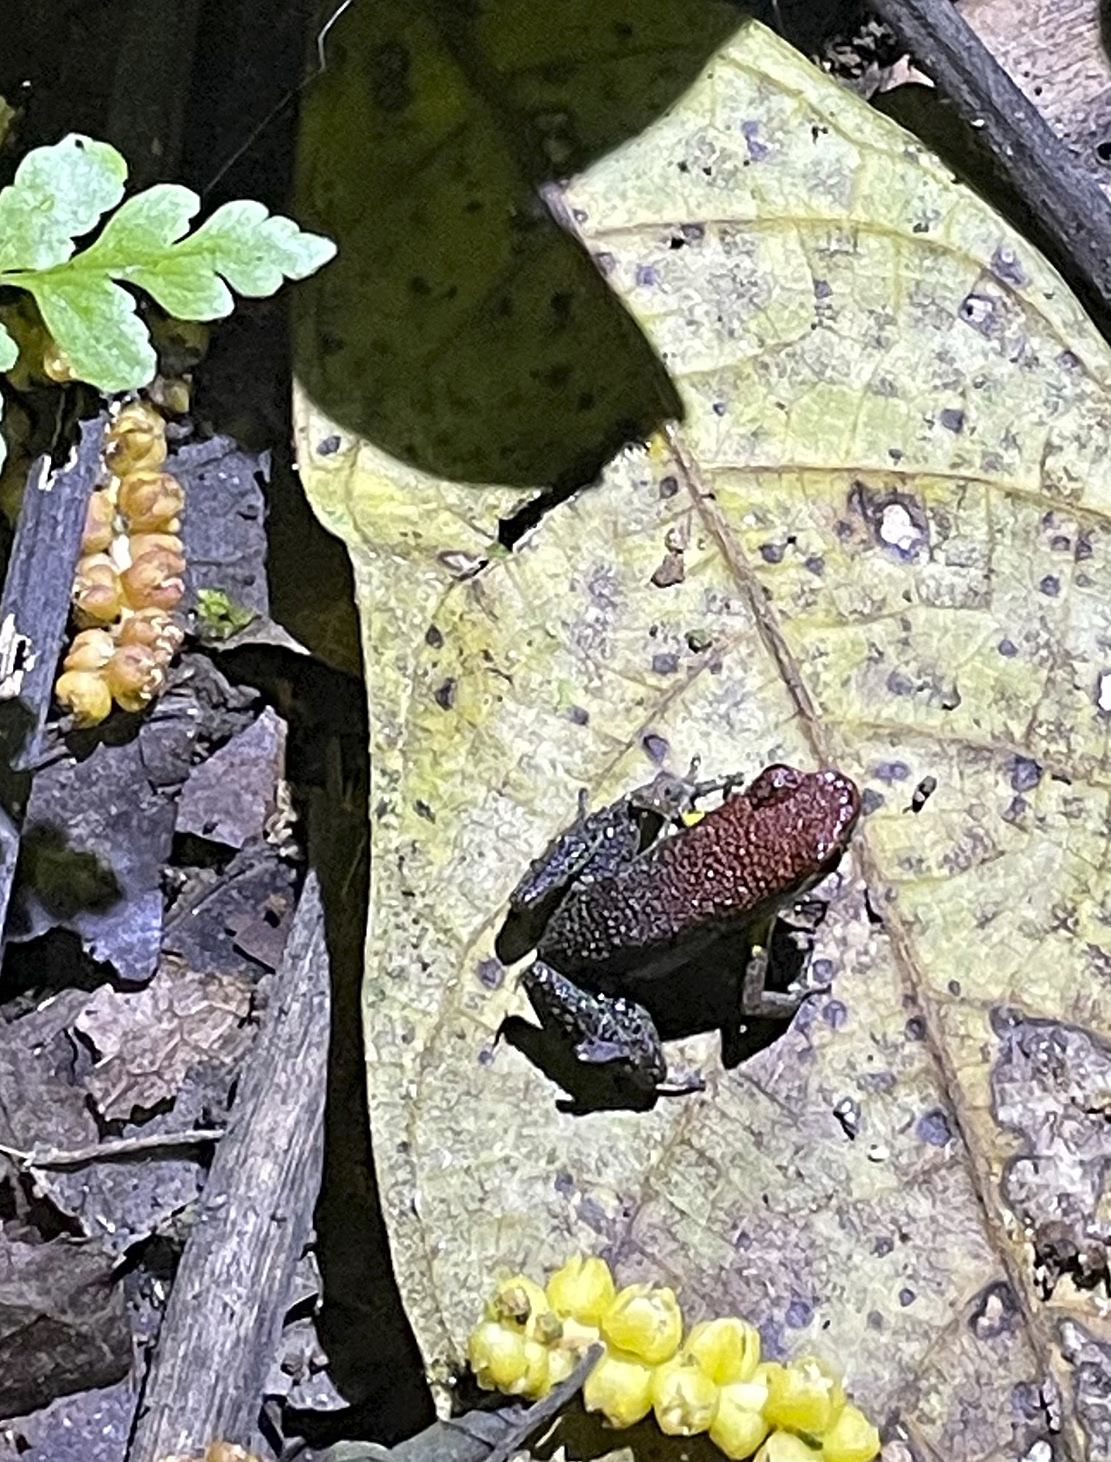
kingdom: Animalia
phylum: Chordata
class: Amphibia
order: Anura
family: Dendrobatidae
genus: Ameerega
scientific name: Ameerega bilinguis
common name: Ecuadorean poison frog
